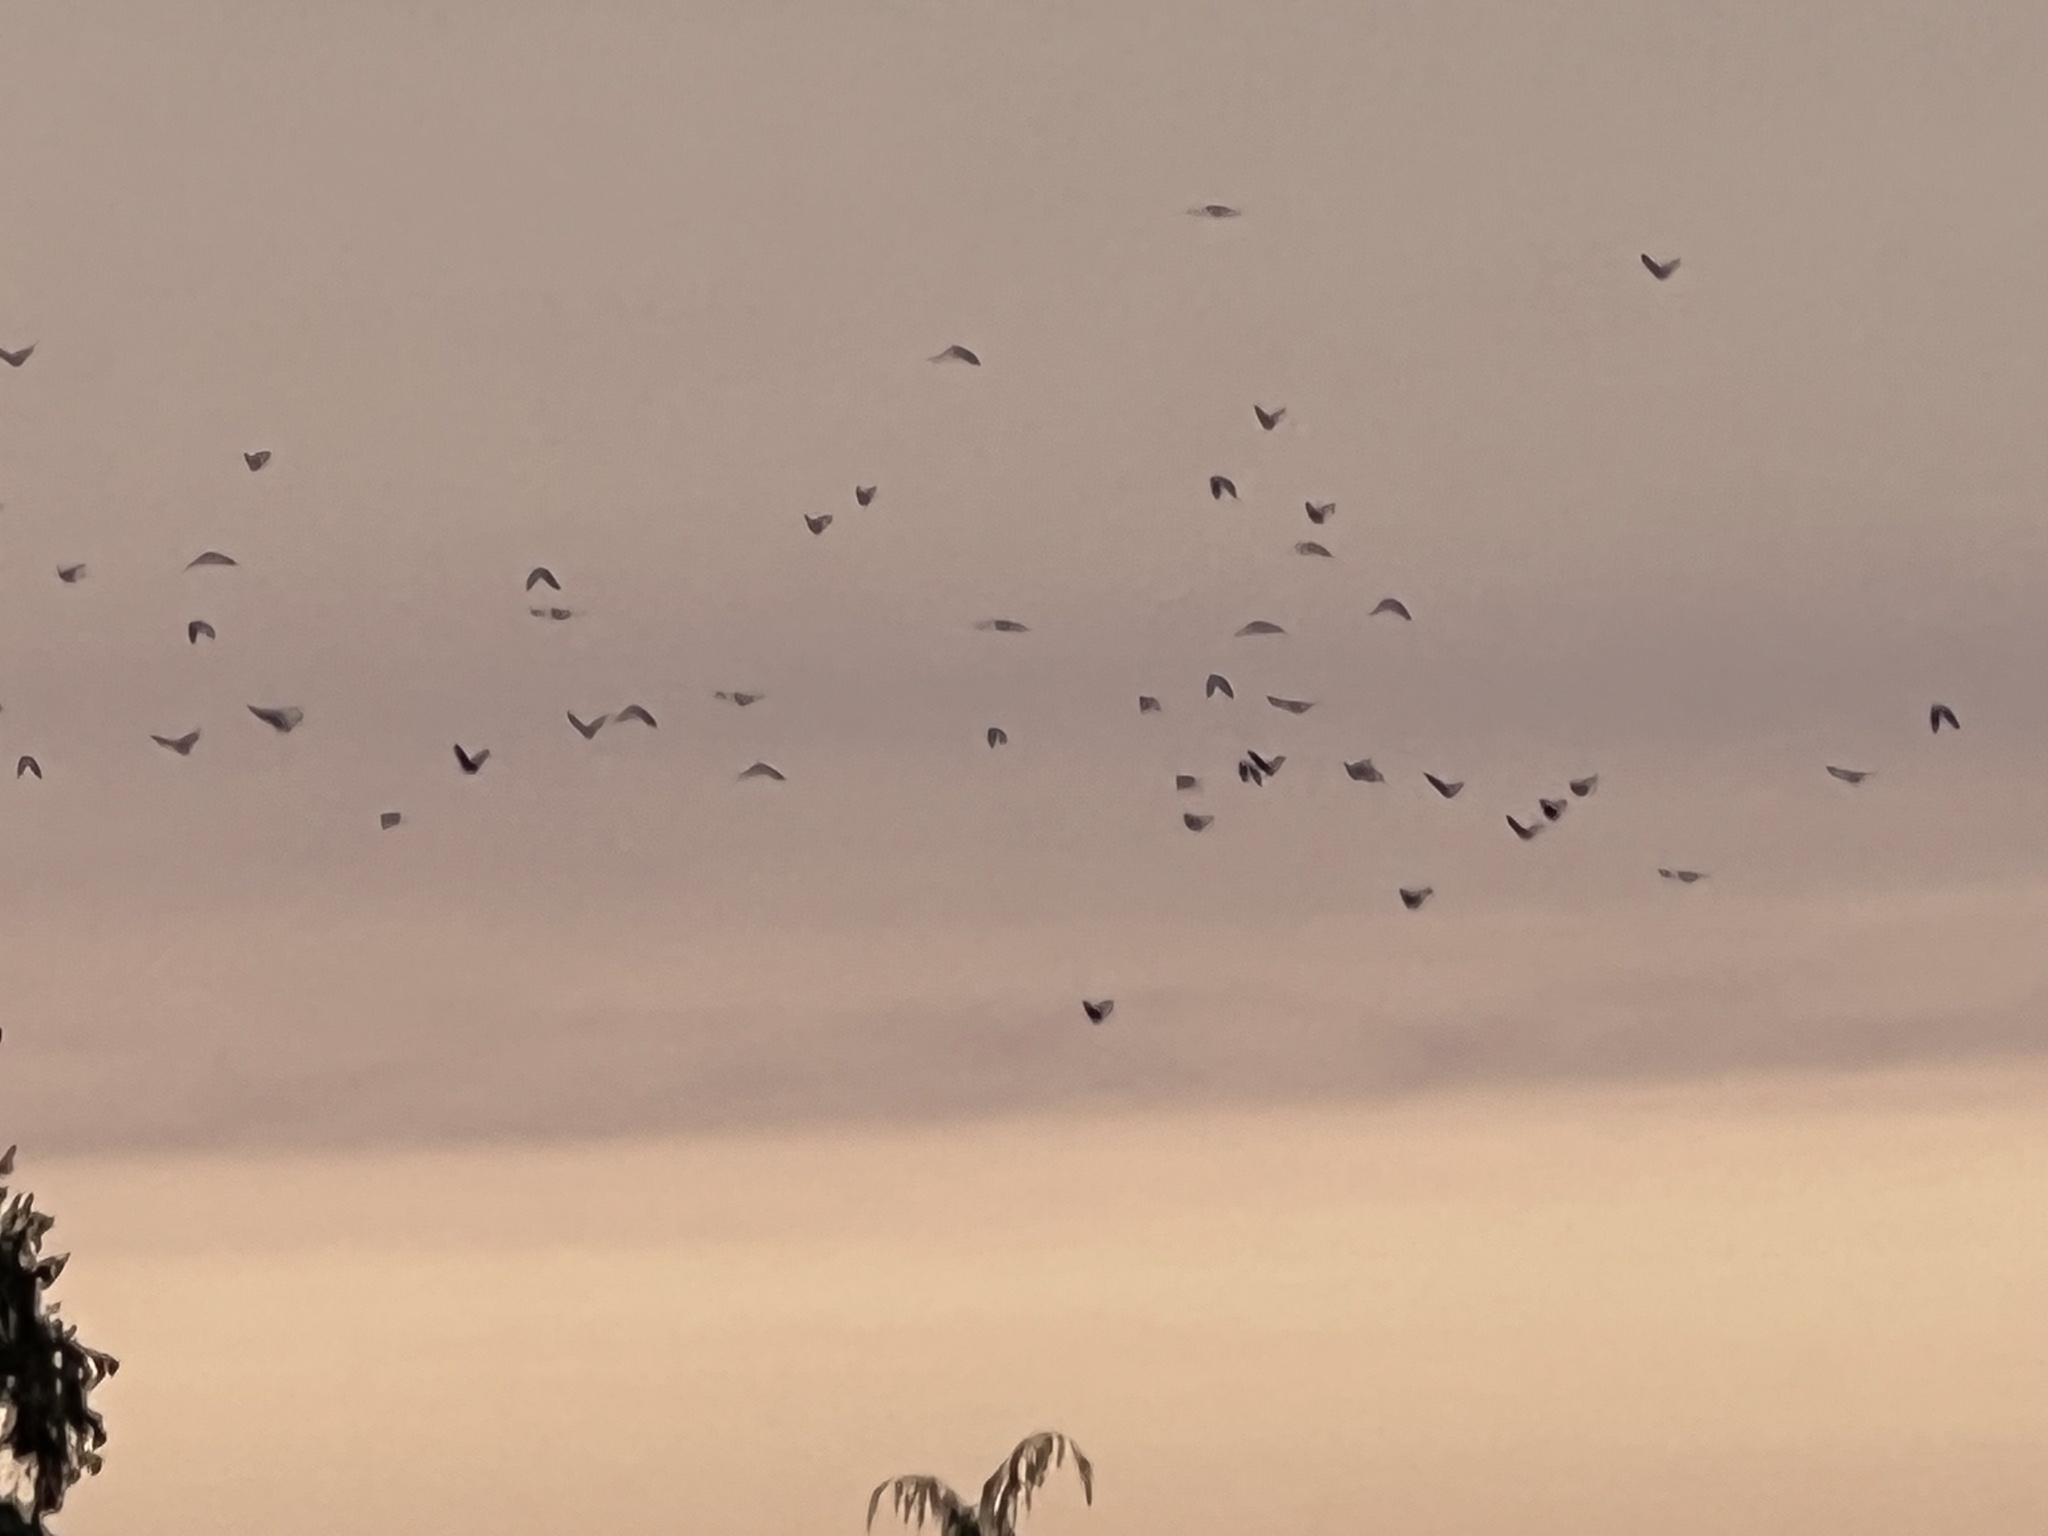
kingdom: Animalia
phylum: Chordata
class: Aves
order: Passeriformes
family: Corvidae
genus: Corvus
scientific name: Corvus brachyrhynchos
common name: American crow
